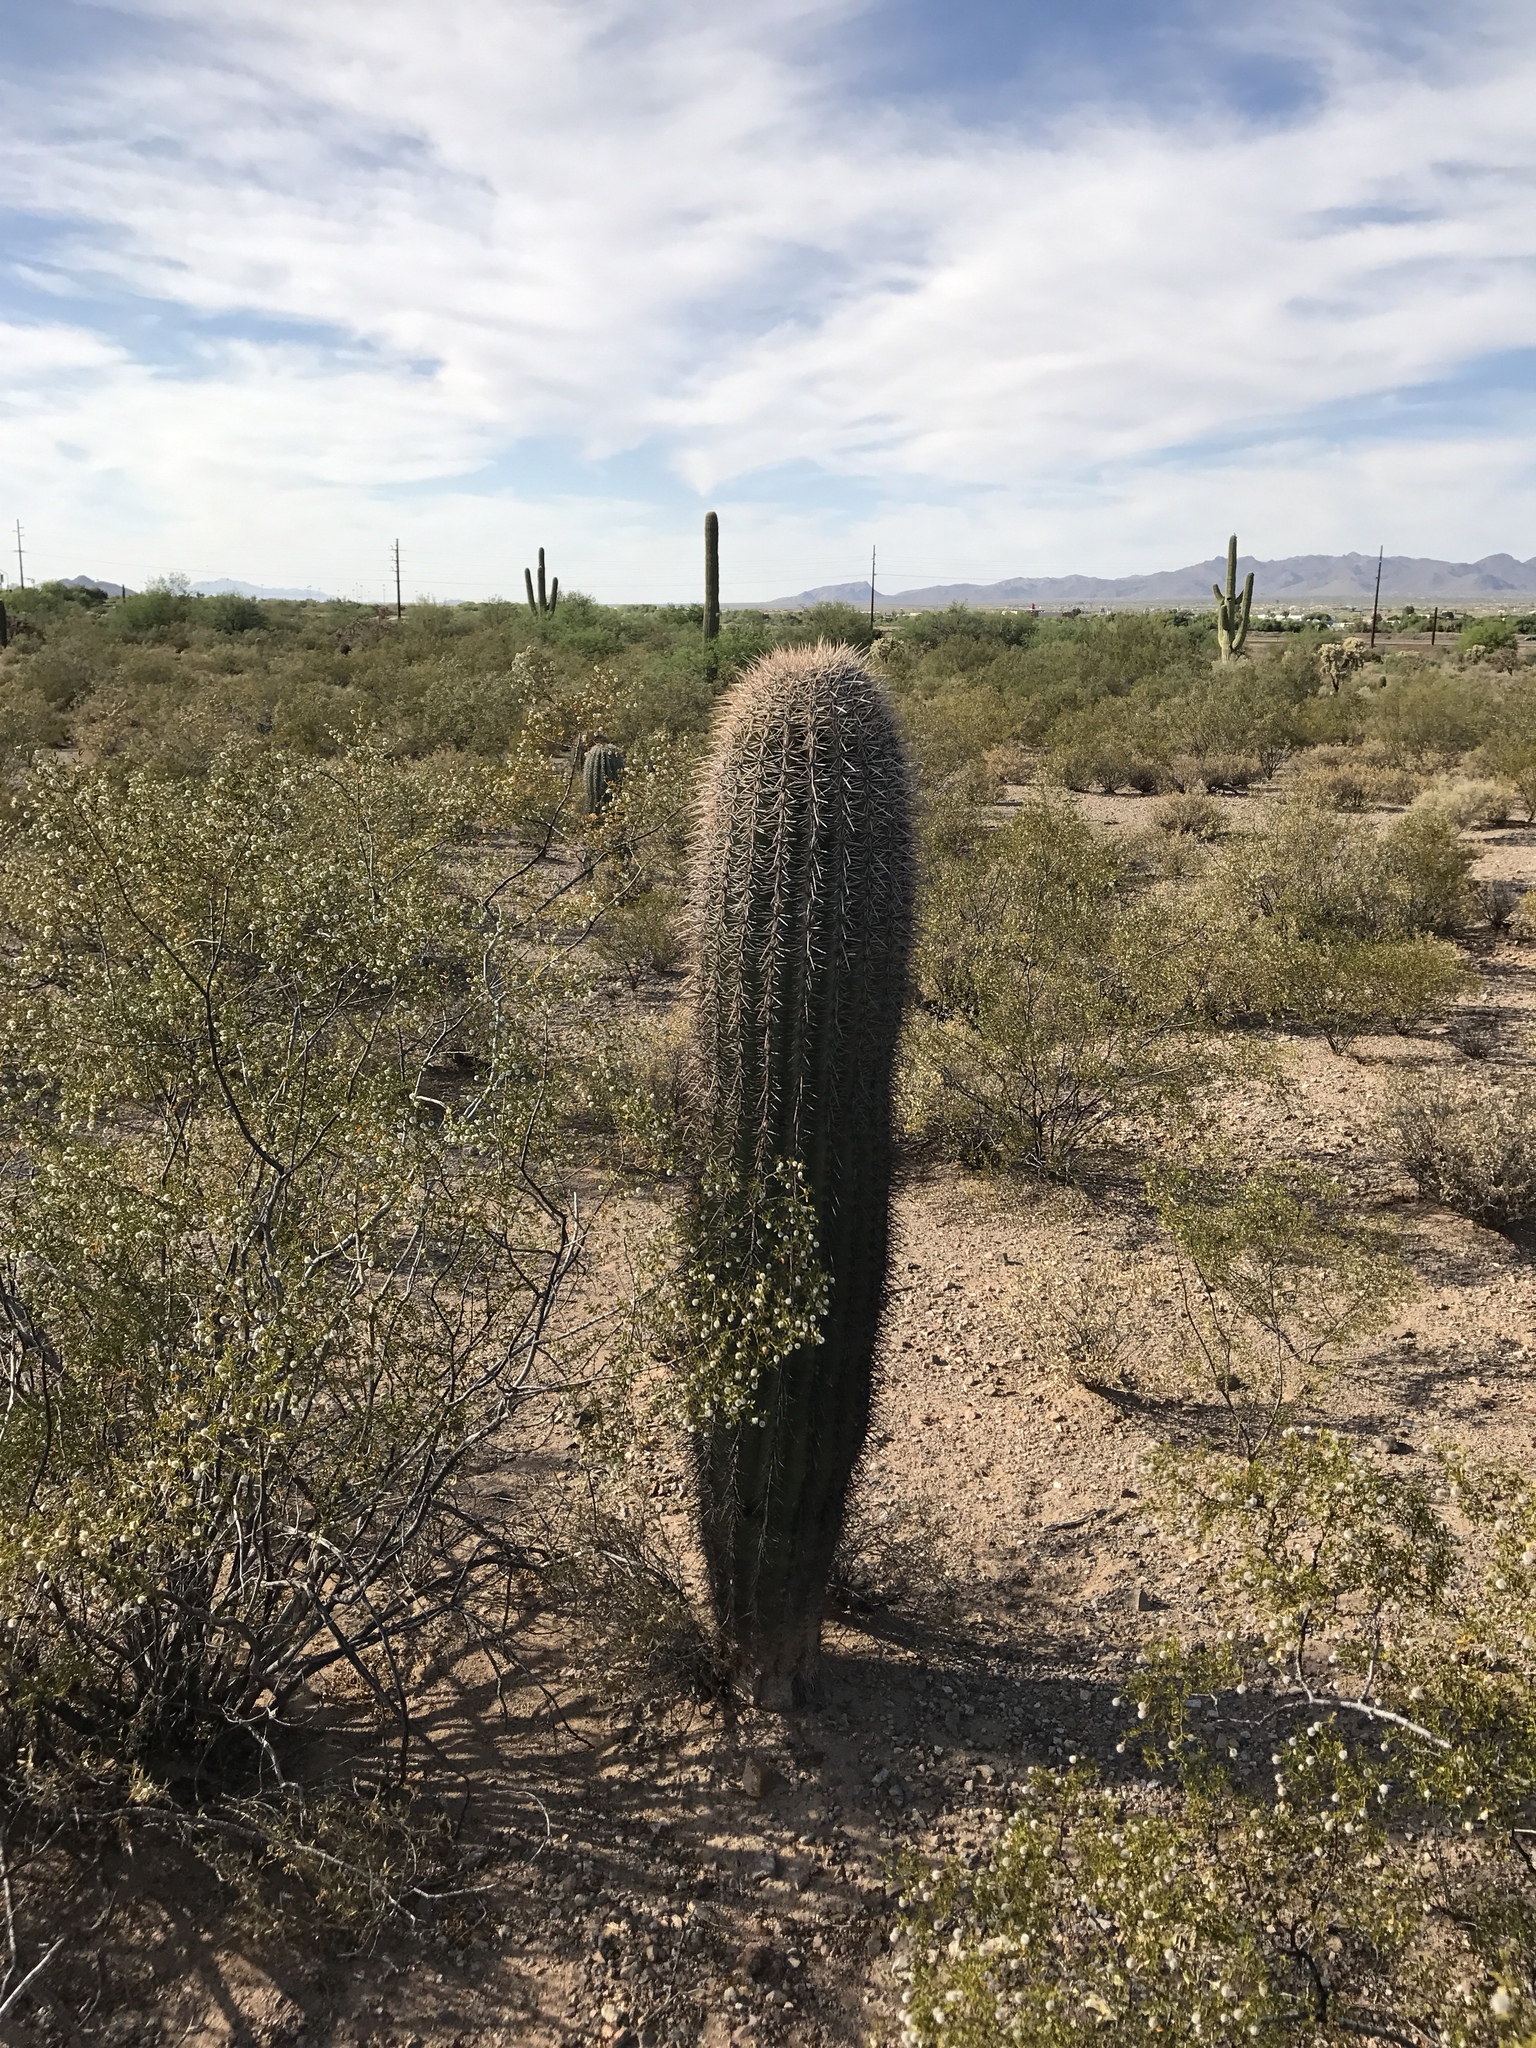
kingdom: Plantae
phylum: Tracheophyta
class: Magnoliopsida
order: Caryophyllales
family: Cactaceae
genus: Carnegiea
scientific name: Carnegiea gigantea
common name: Saguaro
